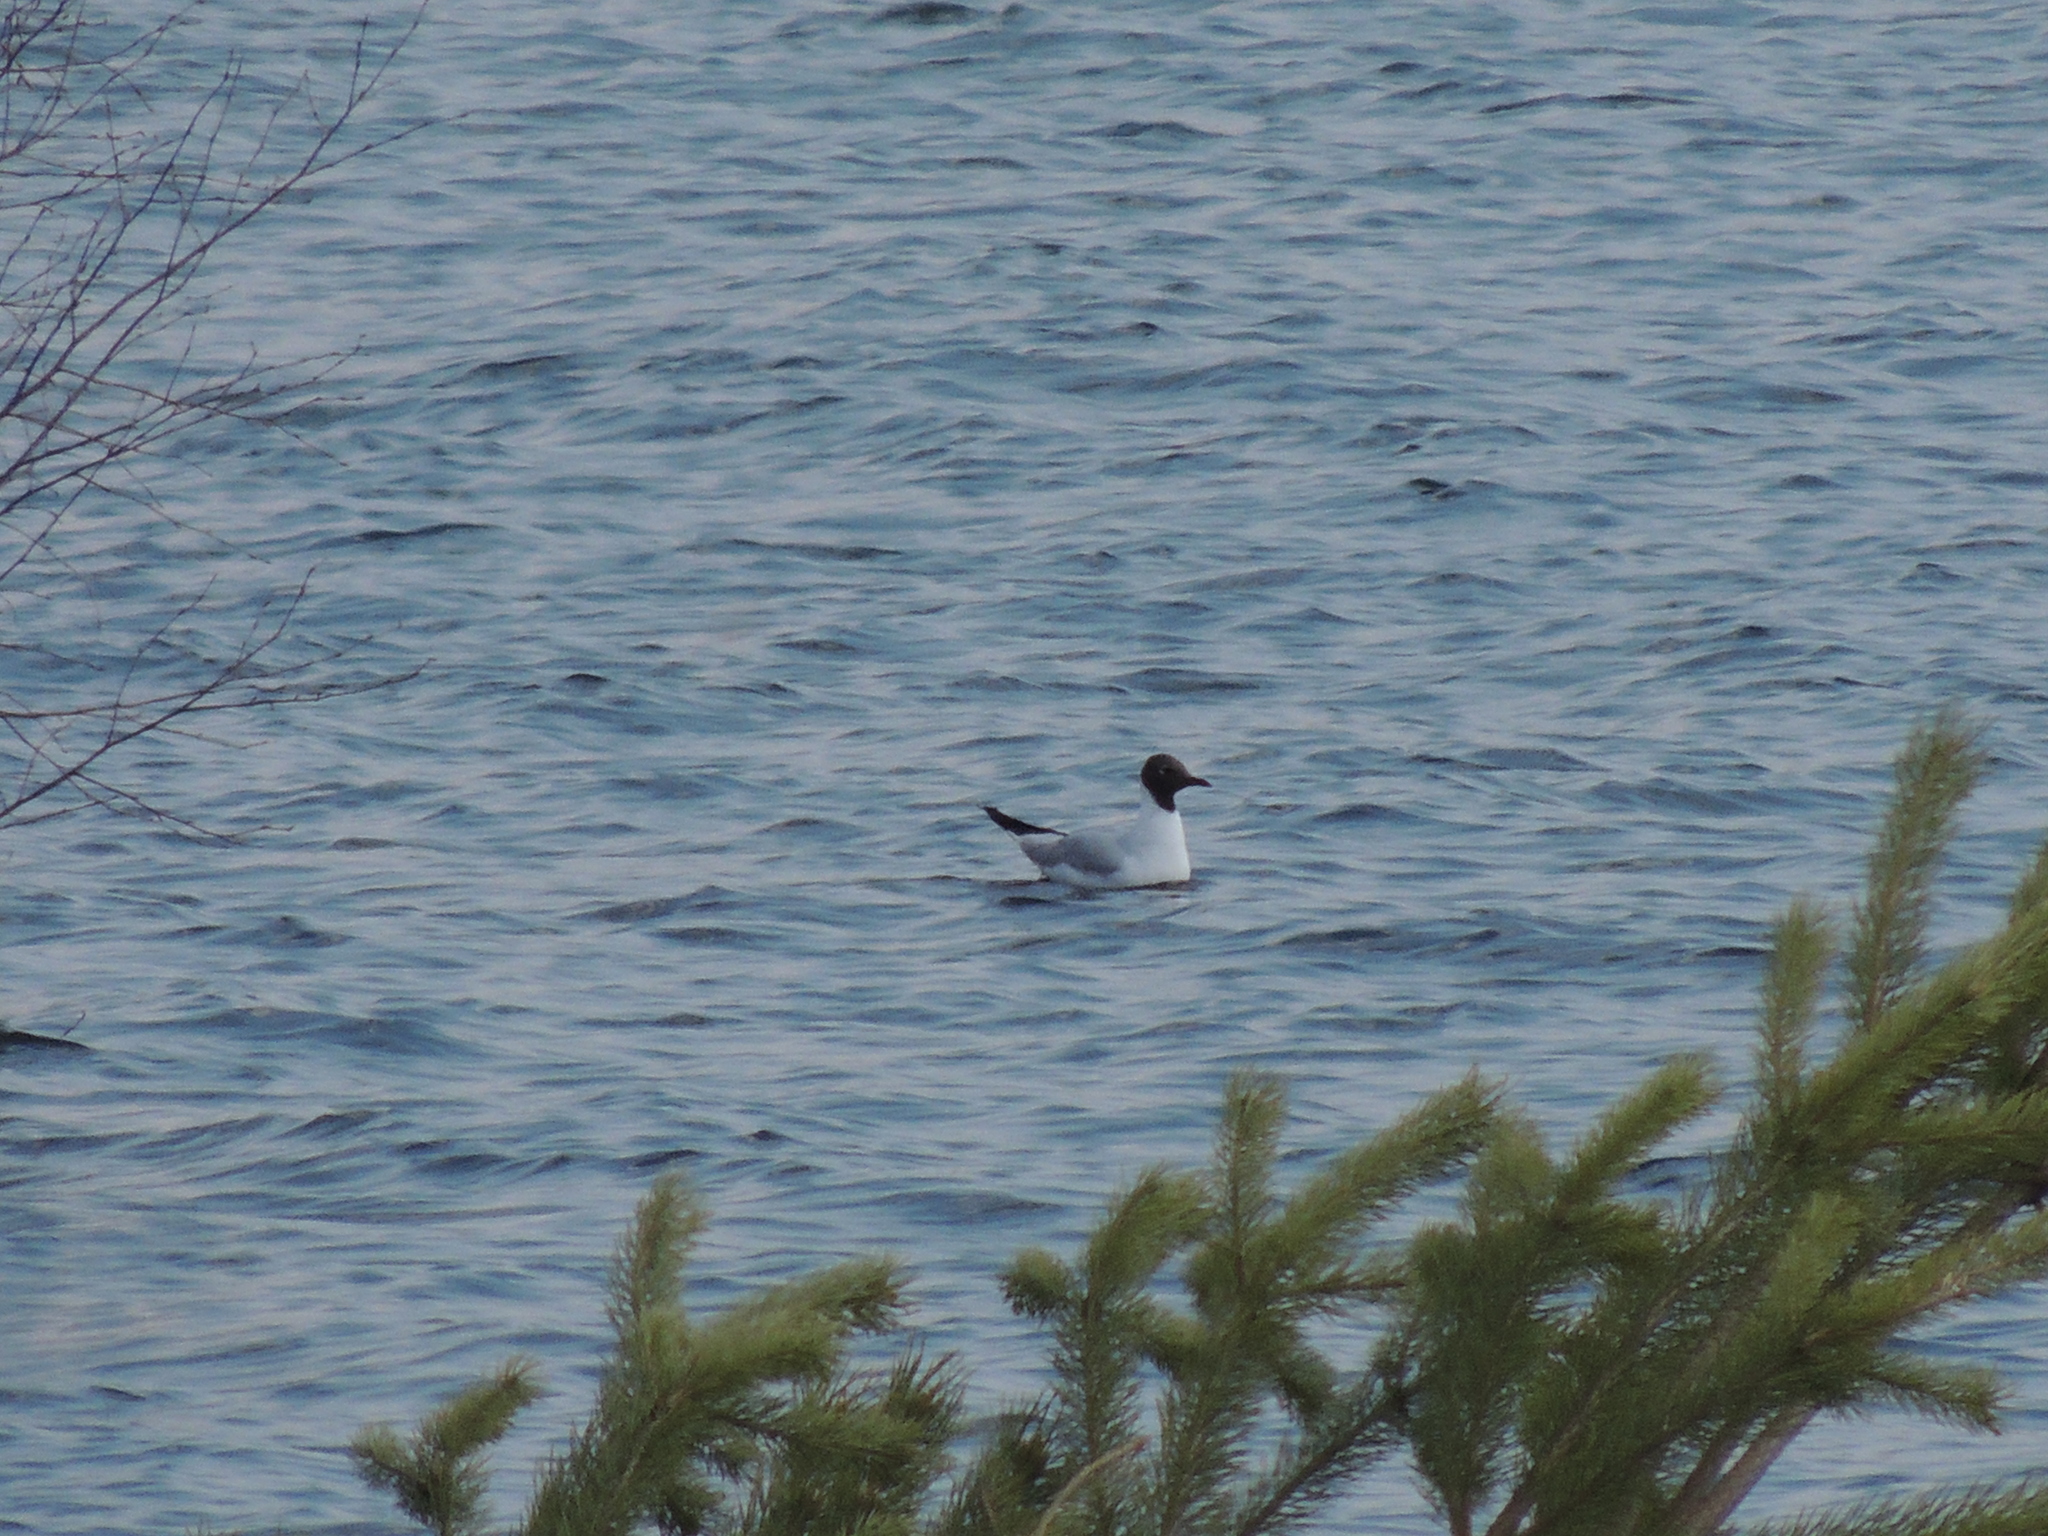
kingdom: Animalia
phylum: Chordata
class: Aves
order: Charadriiformes
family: Laridae
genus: Chroicocephalus
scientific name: Chroicocephalus ridibundus
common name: Black-headed gull
